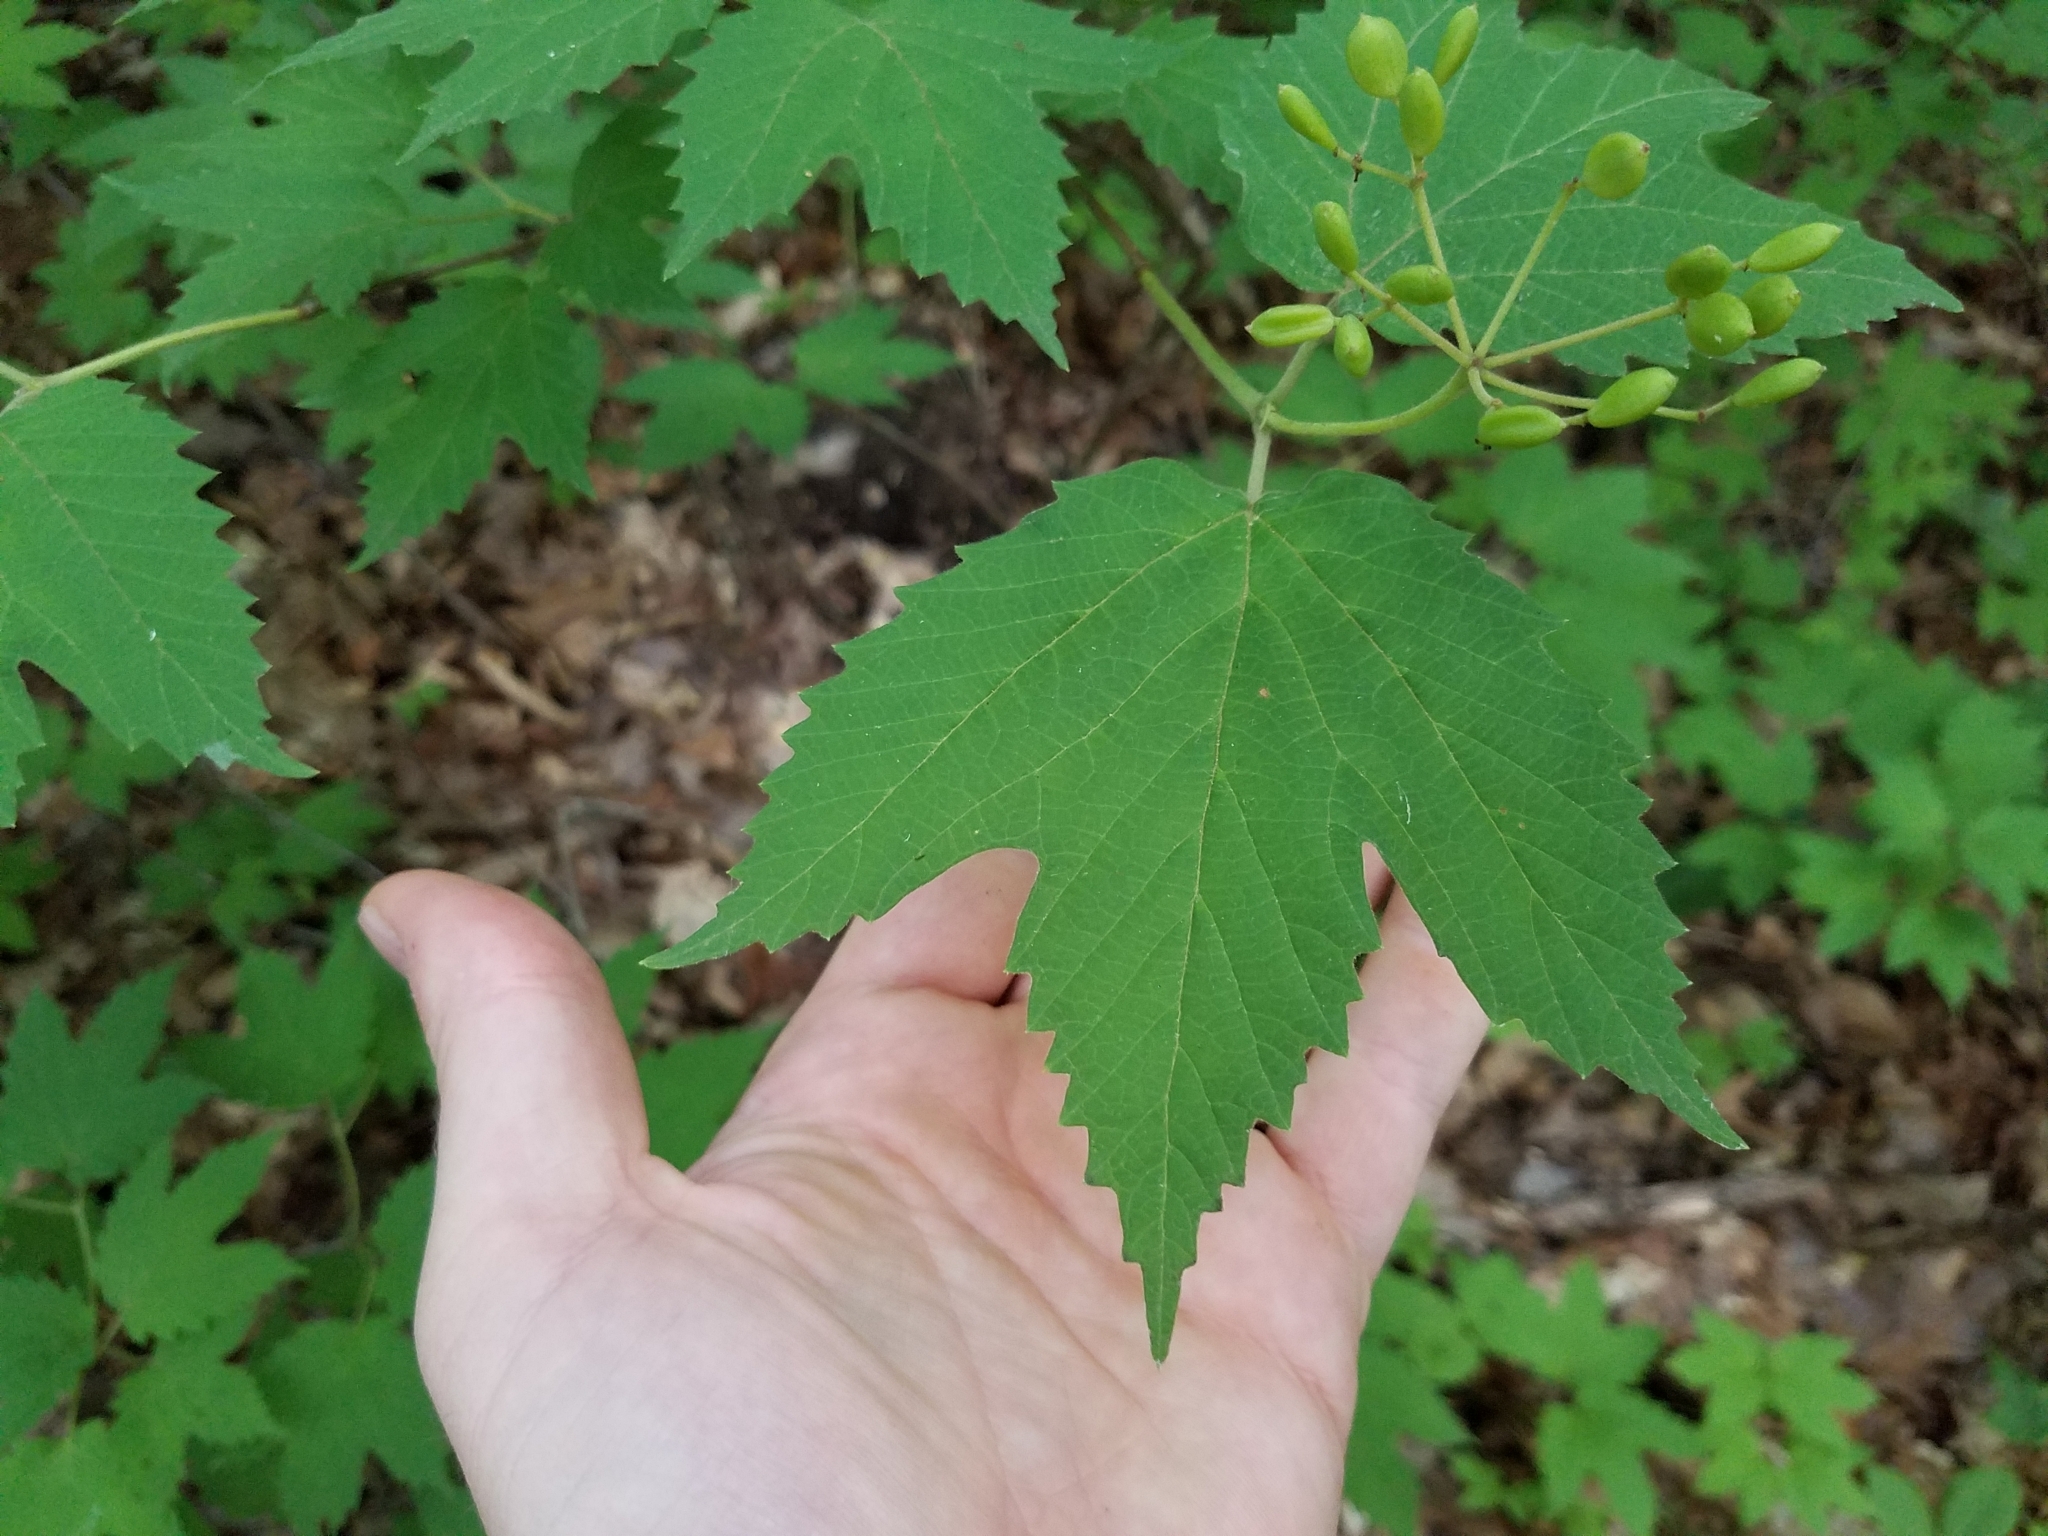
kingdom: Plantae
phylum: Tracheophyta
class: Magnoliopsida
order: Dipsacales
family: Viburnaceae
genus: Viburnum
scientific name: Viburnum acerifolium
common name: Dockmackie
